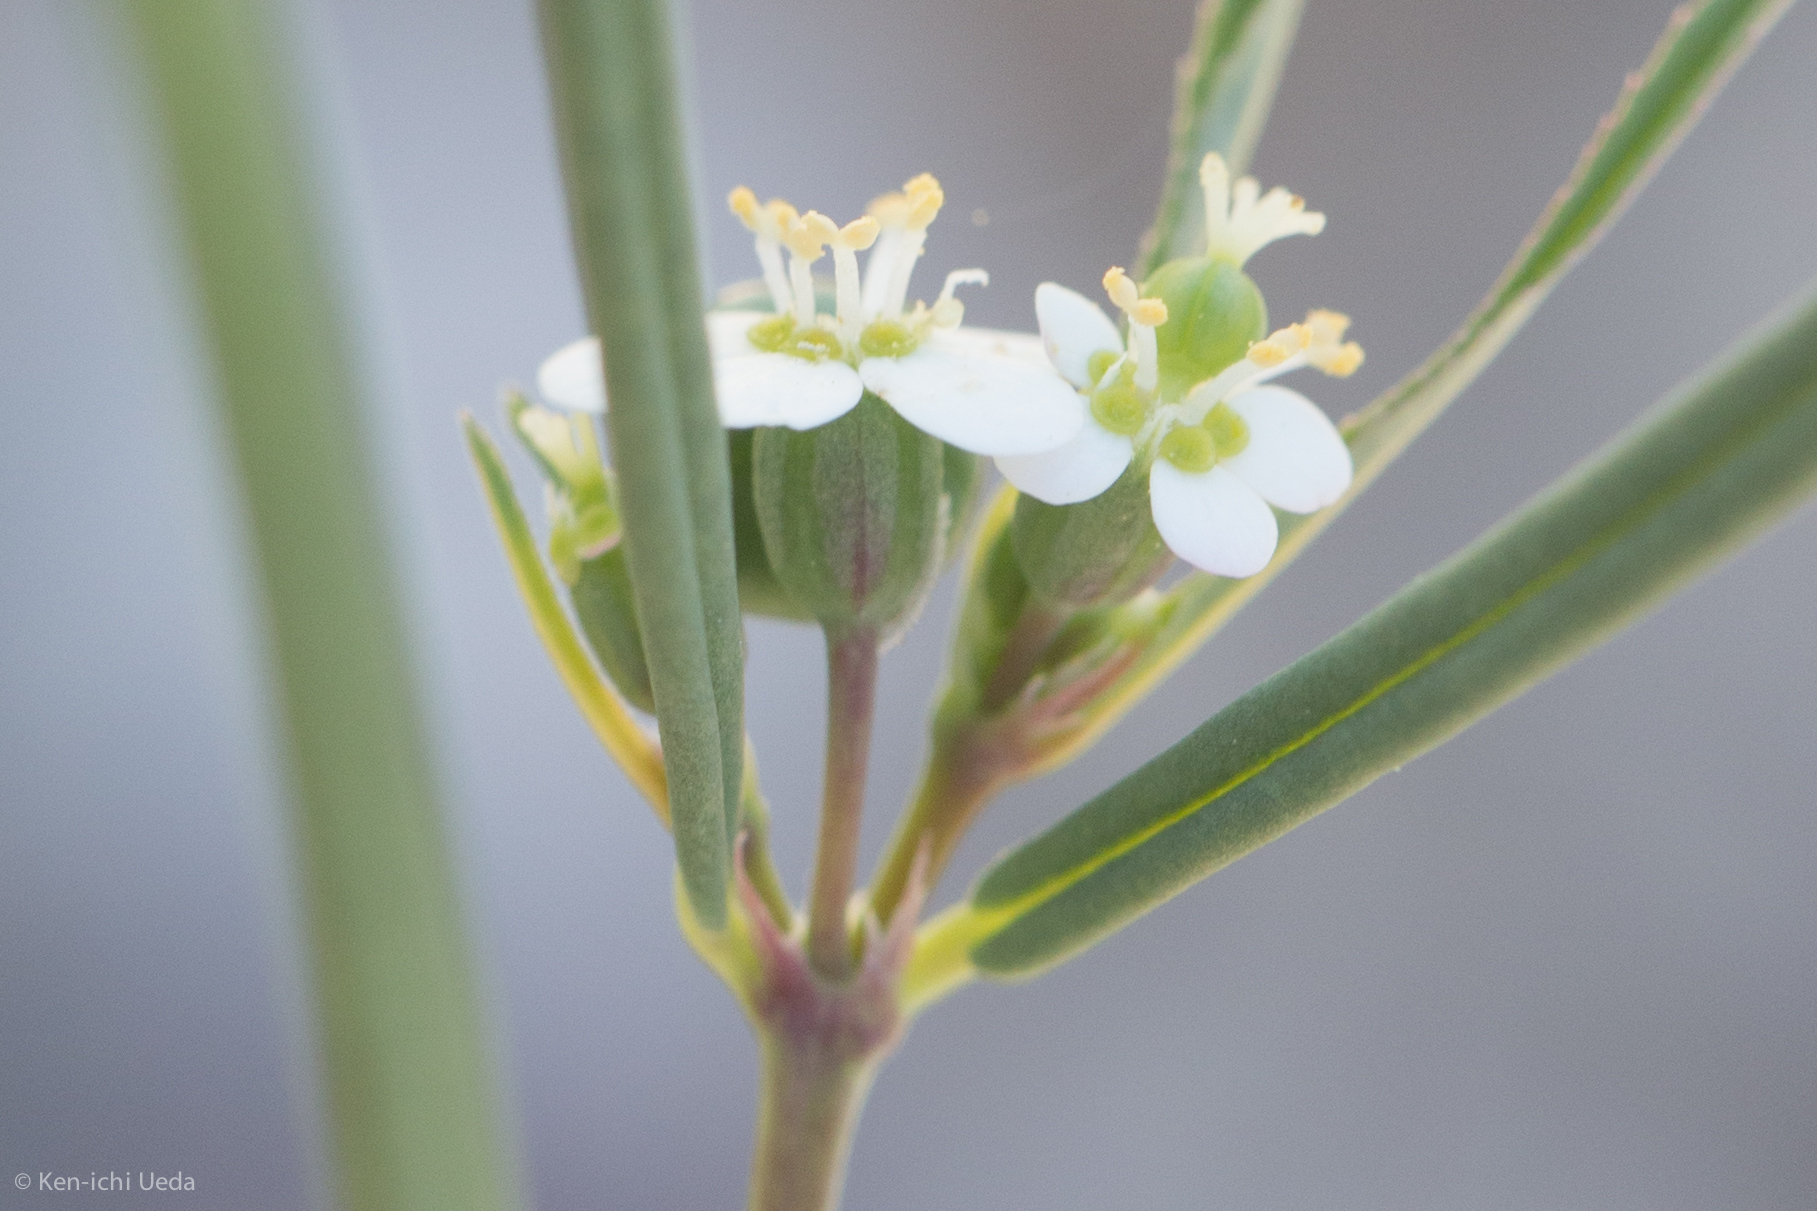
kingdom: Plantae
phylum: Tracheophyta
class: Magnoliopsida
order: Malpighiales
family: Euphorbiaceae
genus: Euphorbia
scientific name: Euphorbia florida
